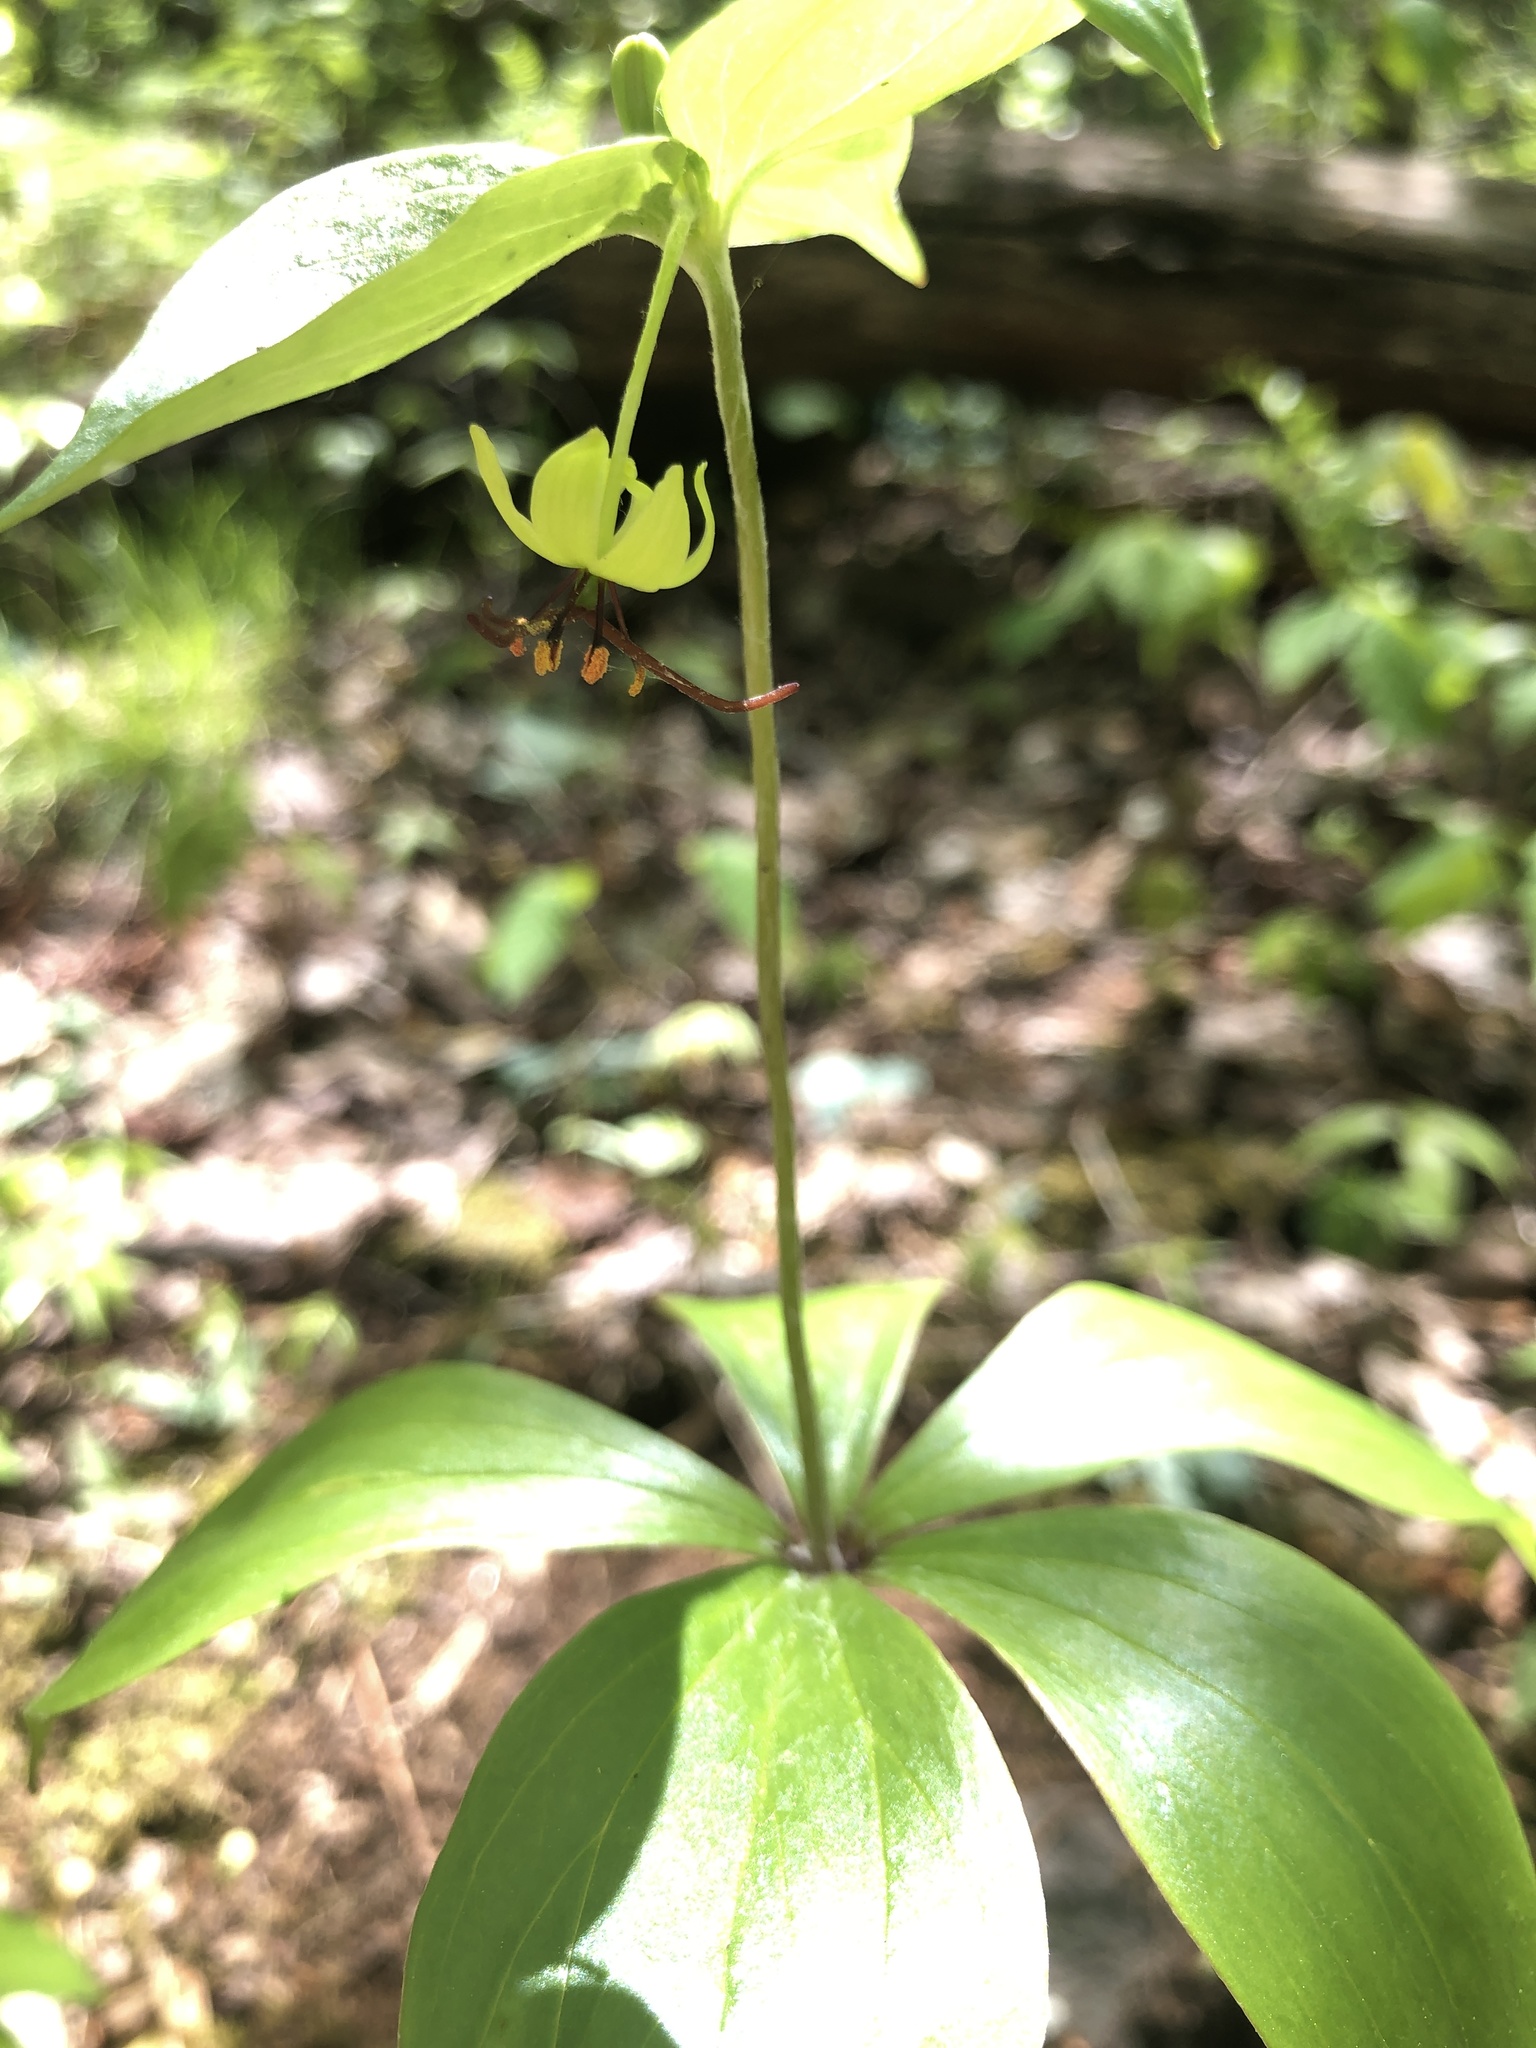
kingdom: Plantae
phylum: Tracheophyta
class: Liliopsida
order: Liliales
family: Liliaceae
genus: Medeola
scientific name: Medeola virginiana
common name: Indian cucumber-root
